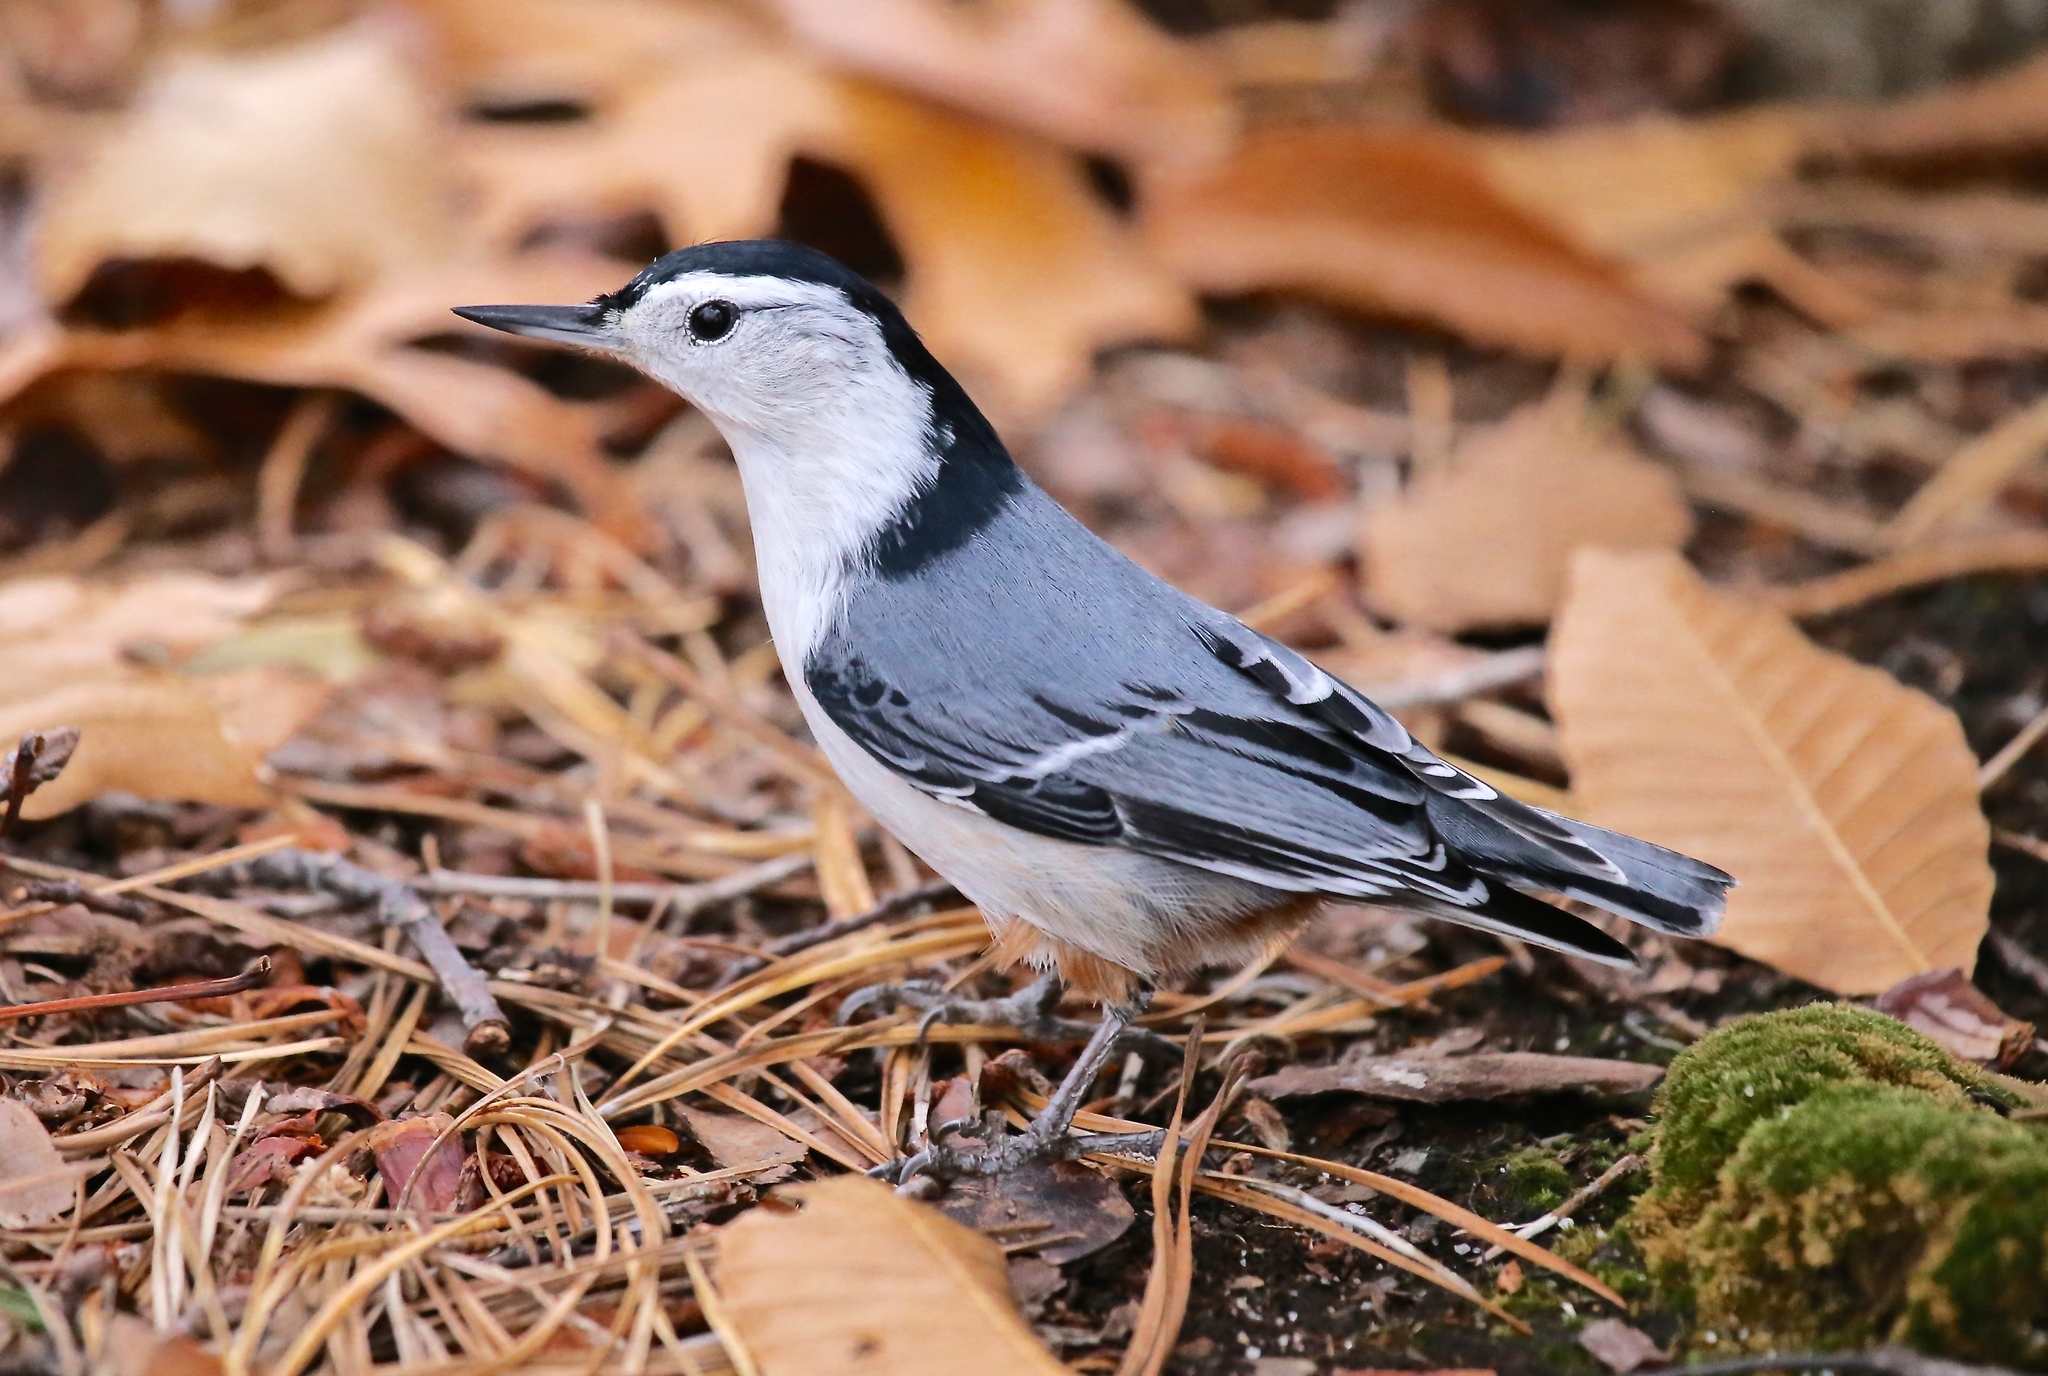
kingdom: Animalia
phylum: Chordata
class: Aves
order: Passeriformes
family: Sittidae
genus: Sitta
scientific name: Sitta carolinensis
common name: White-breasted nuthatch
